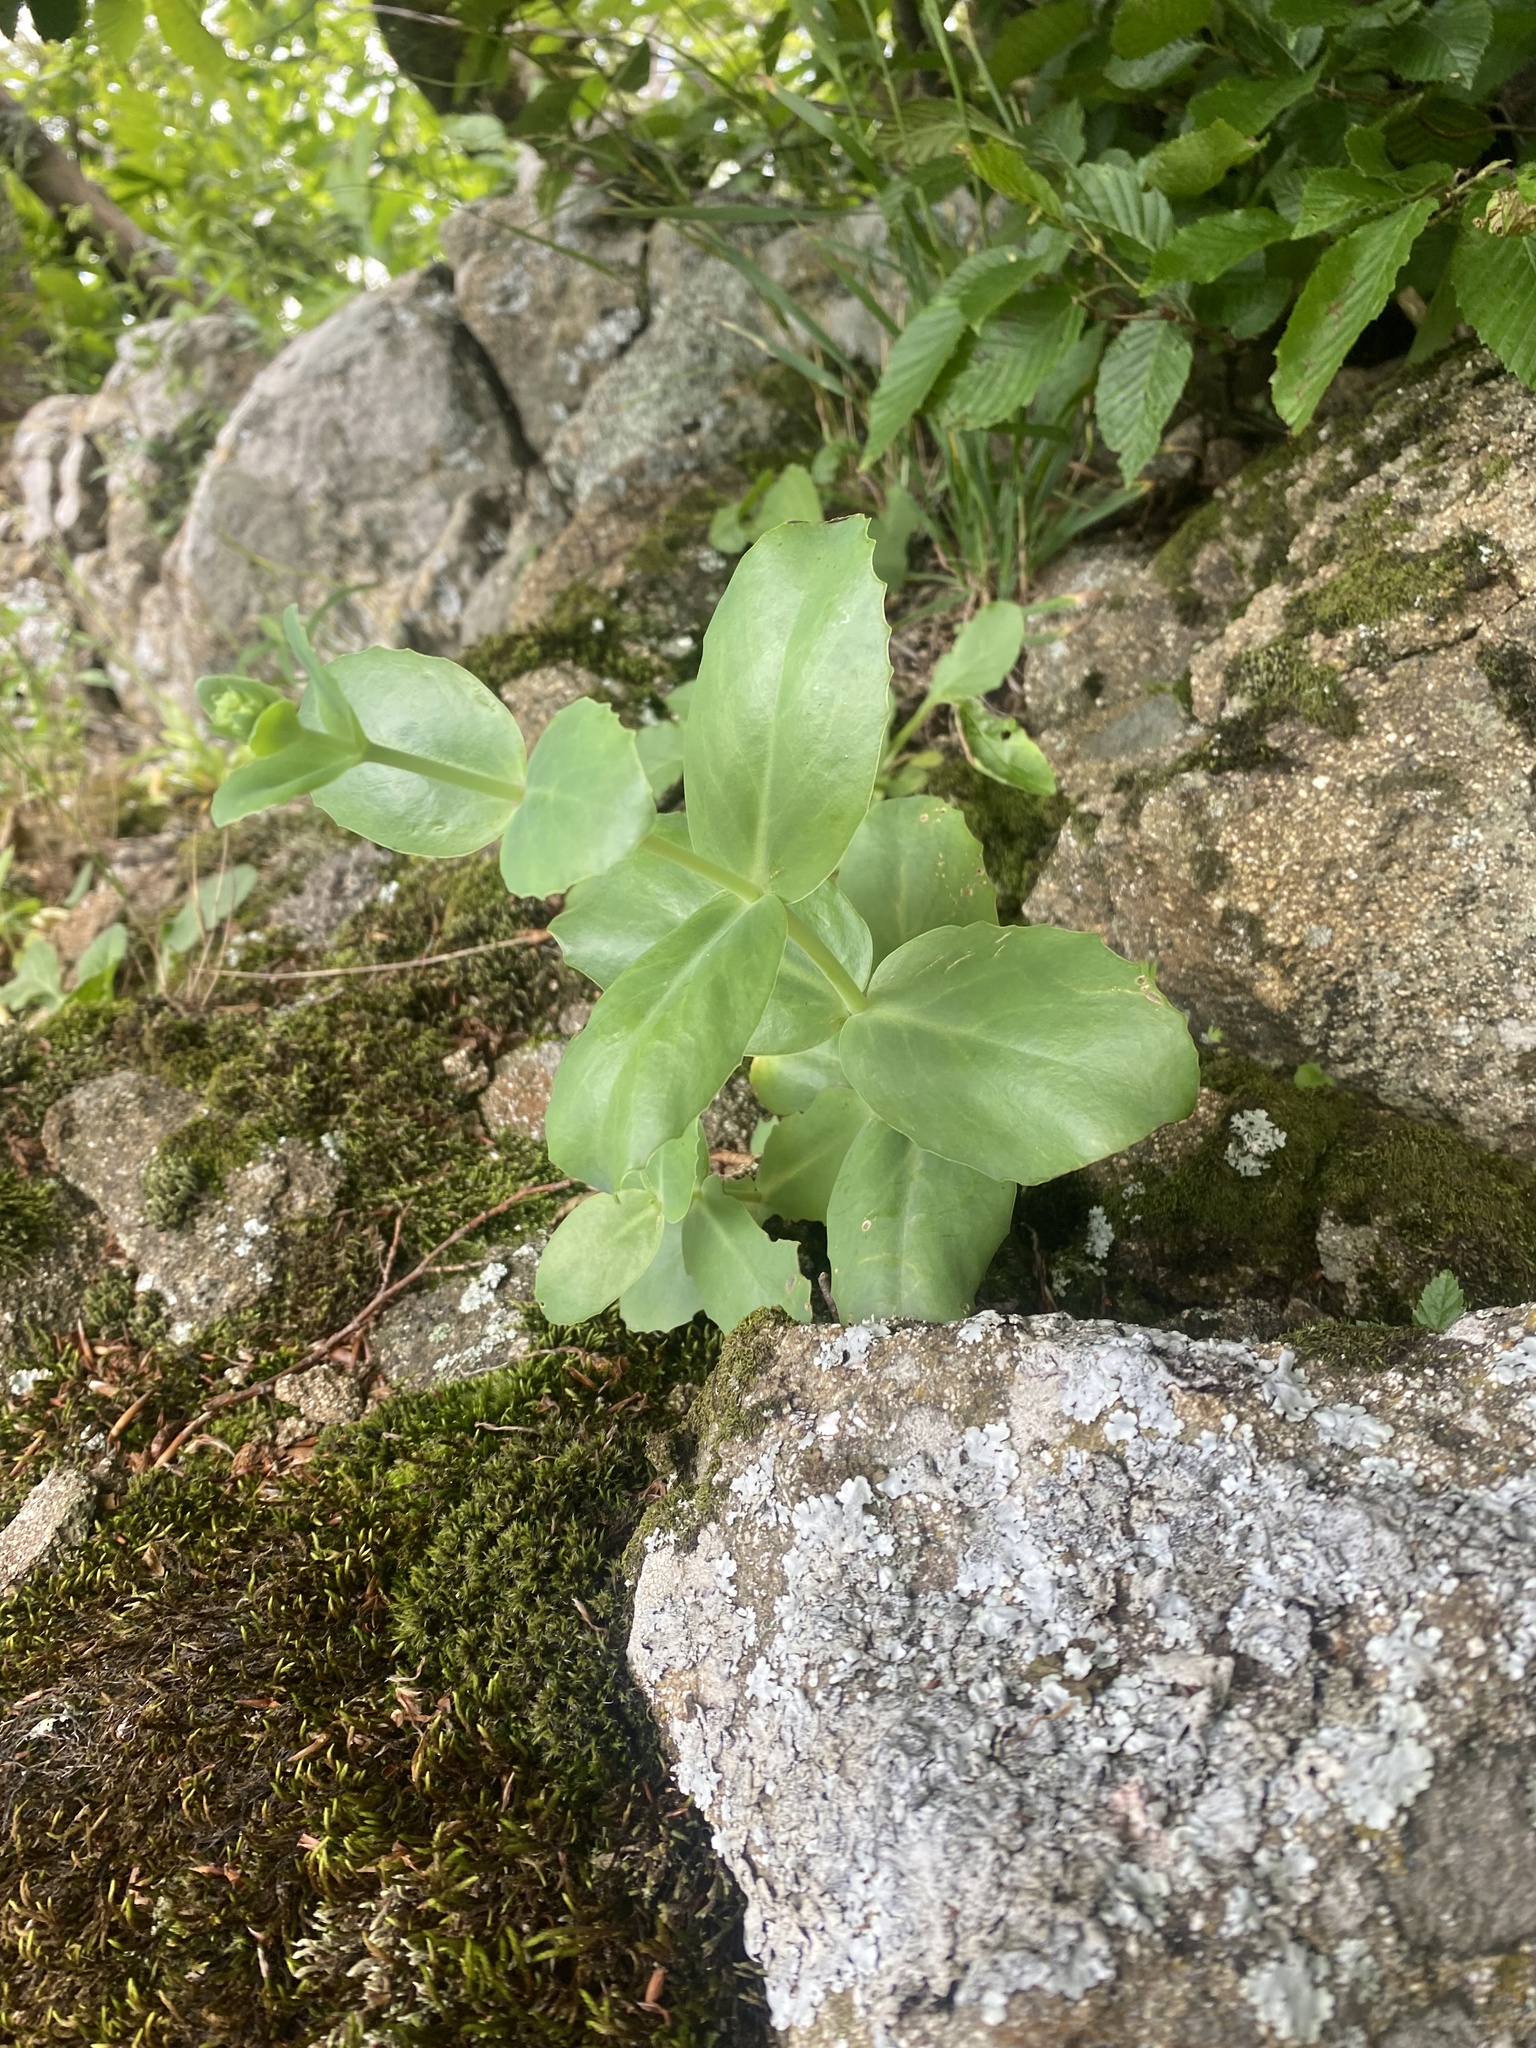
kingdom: Plantae
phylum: Tracheophyta
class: Magnoliopsida
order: Saxifragales
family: Crassulaceae
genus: Hylotelephium
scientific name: Hylotelephium maximum
